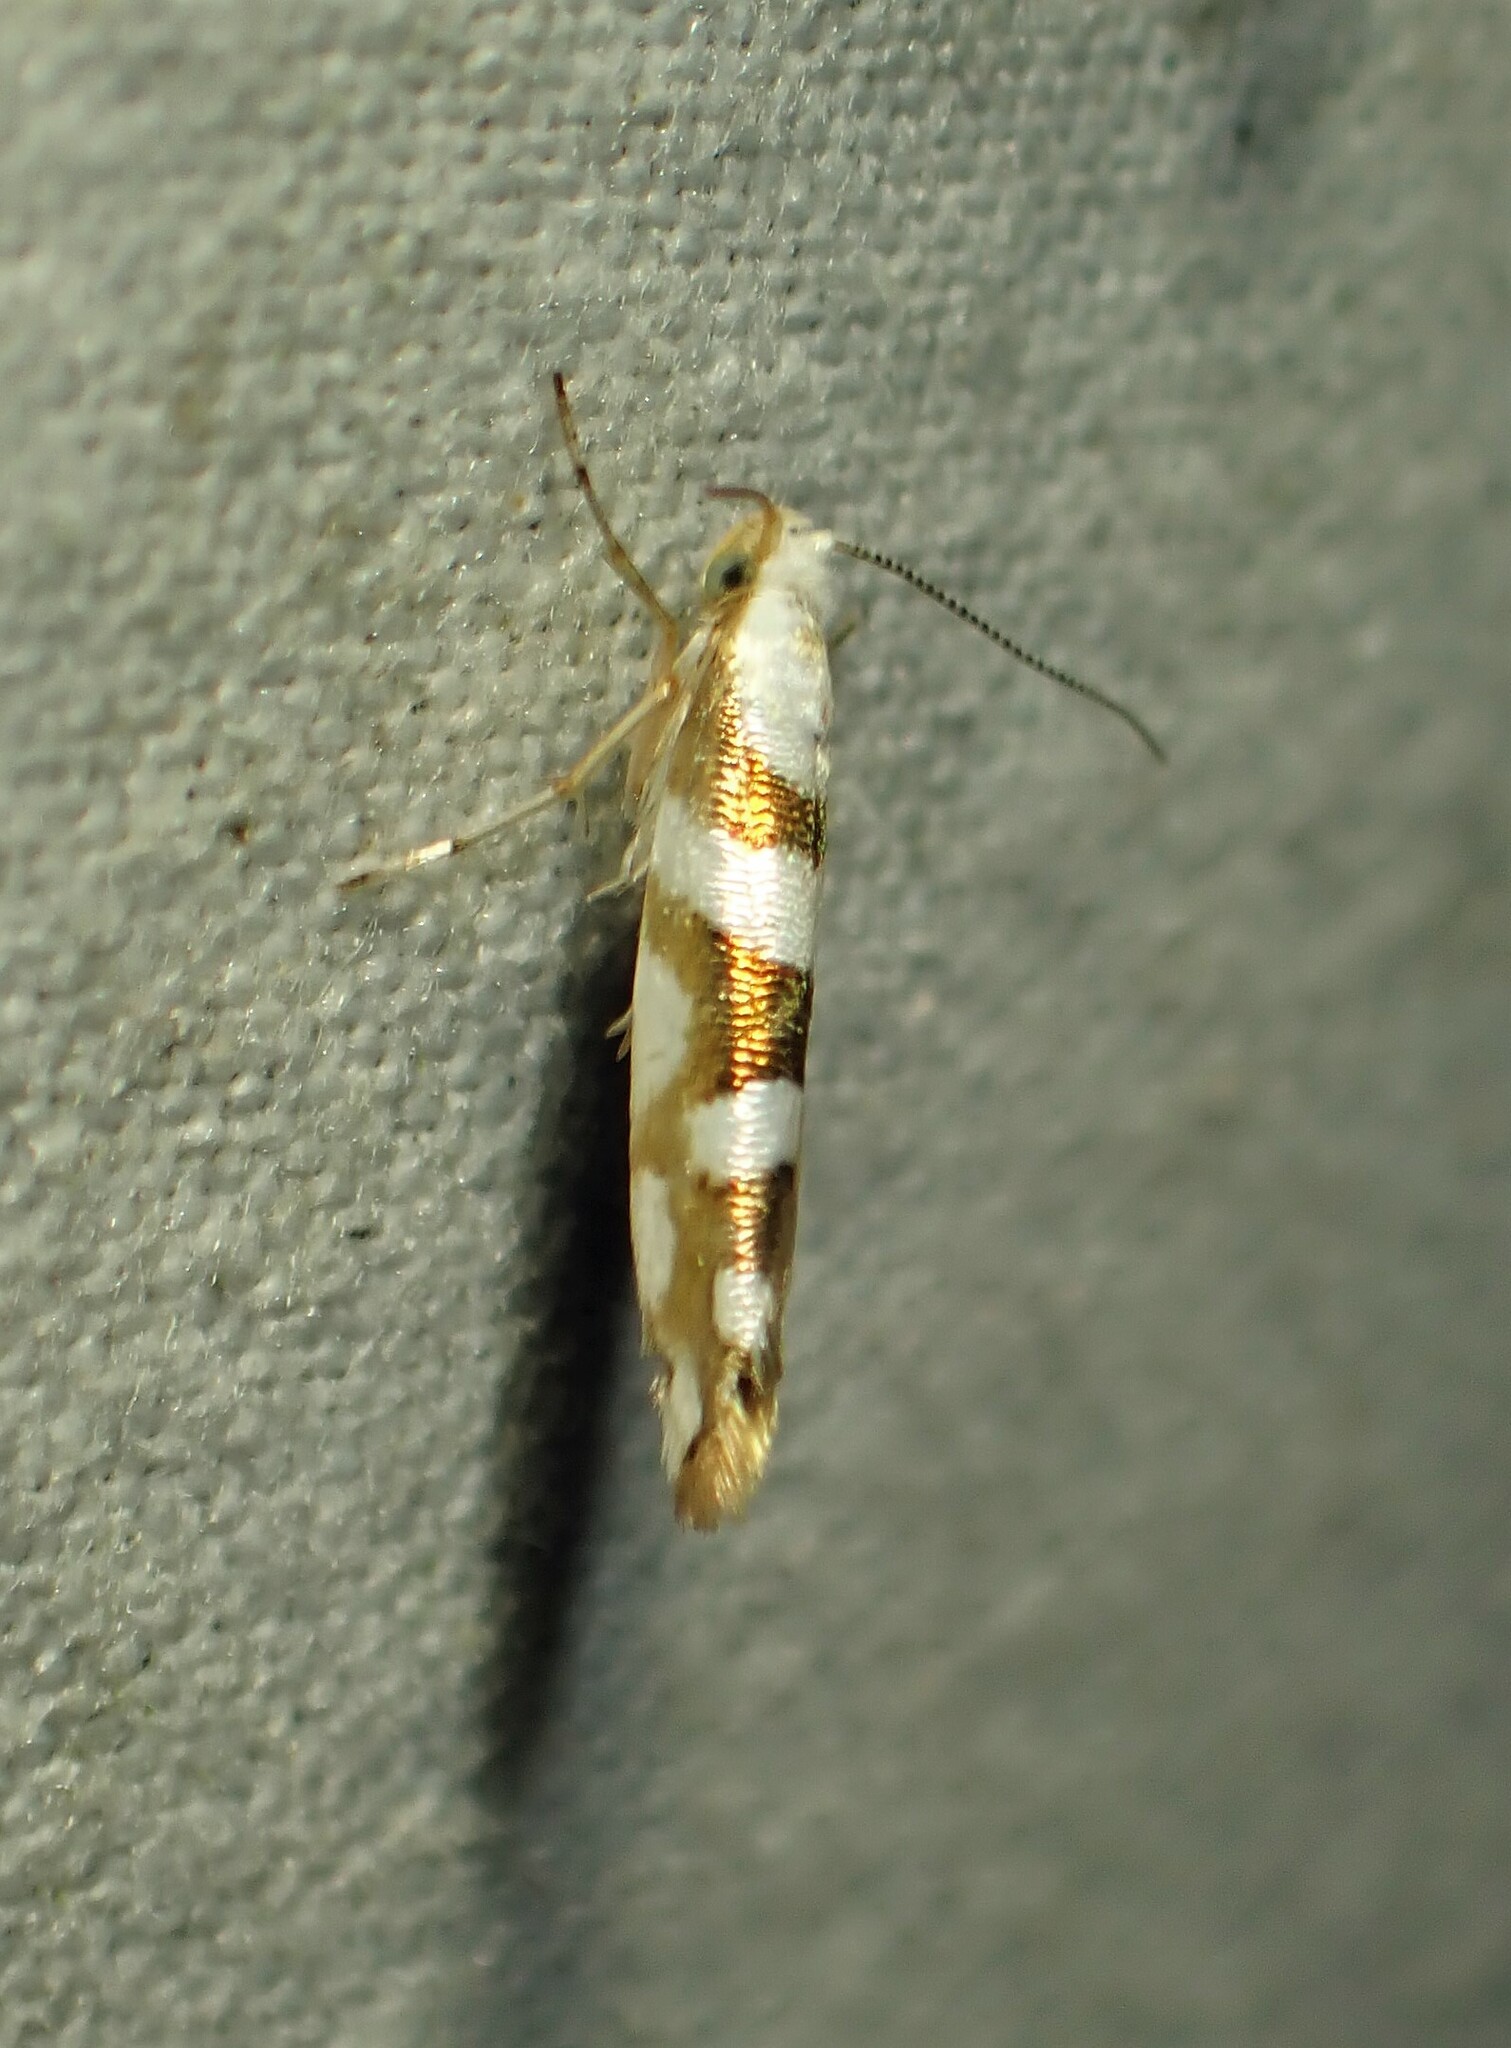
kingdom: Animalia
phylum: Arthropoda
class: Insecta
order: Lepidoptera
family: Argyresthiidae
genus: Argyresthia
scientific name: Argyresthia calliphanes
